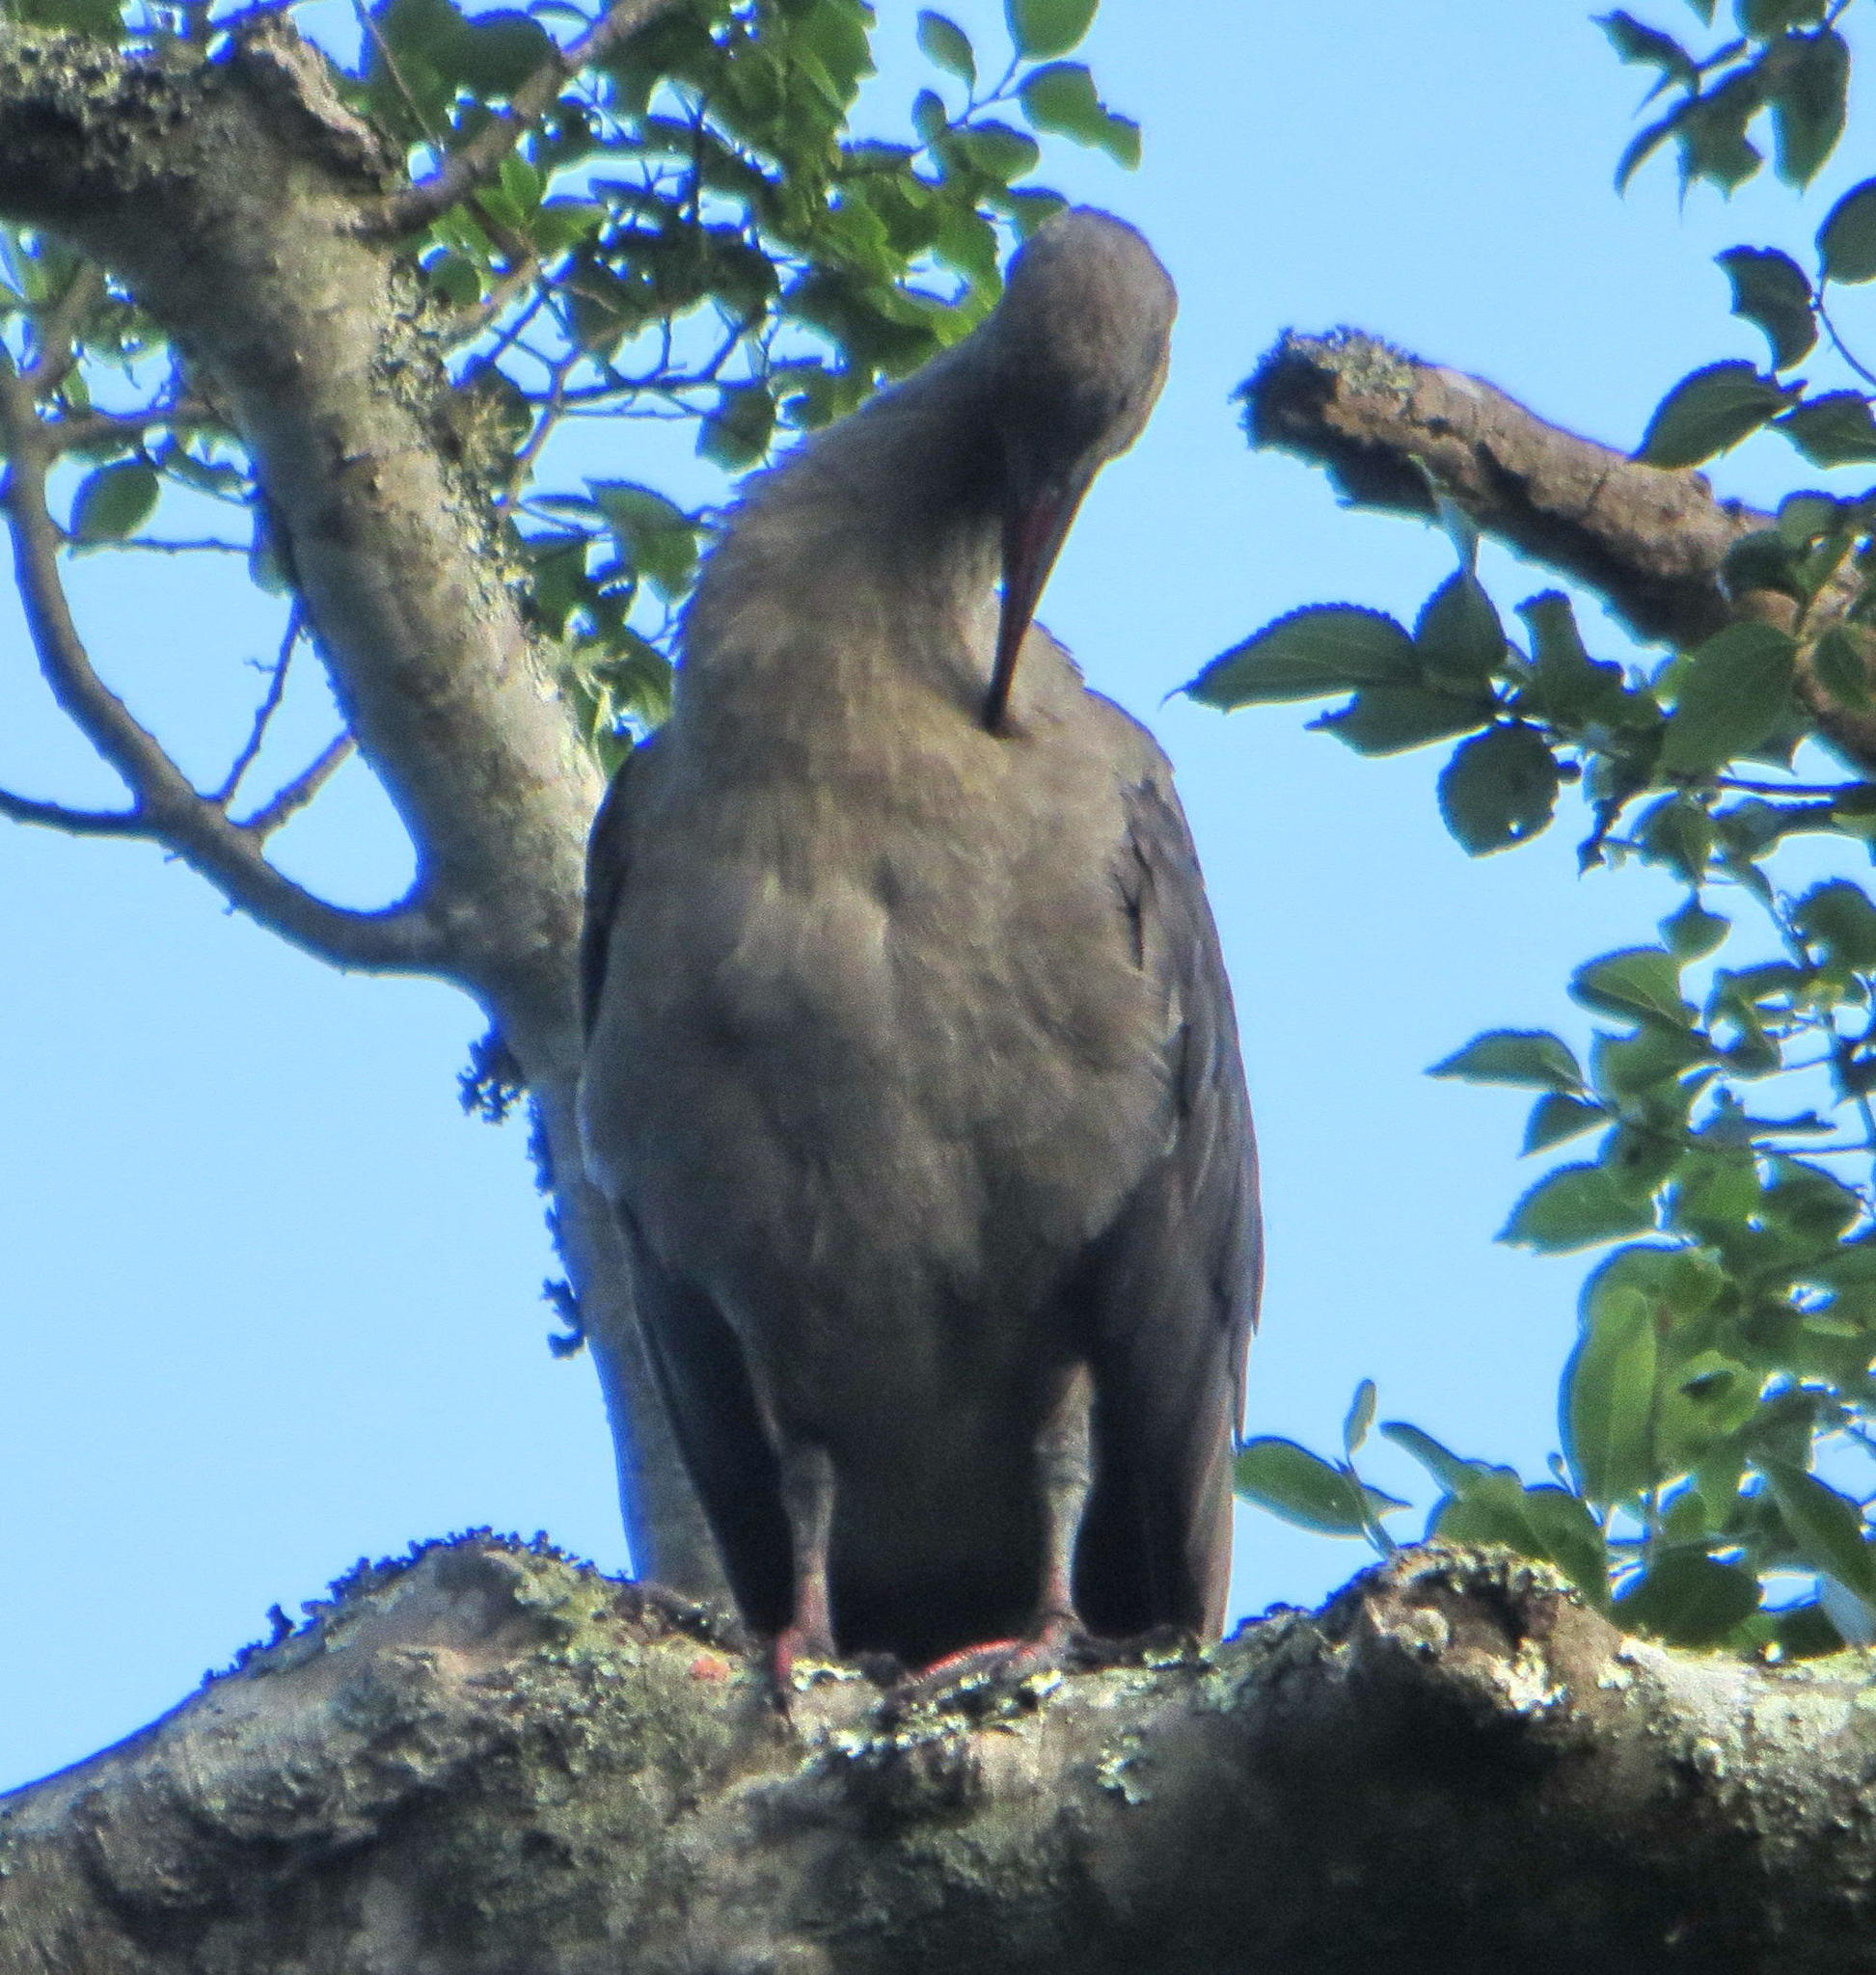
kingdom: Animalia
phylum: Chordata
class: Aves
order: Pelecaniformes
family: Threskiornithidae
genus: Bostrychia
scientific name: Bostrychia hagedash
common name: Hadada ibis
